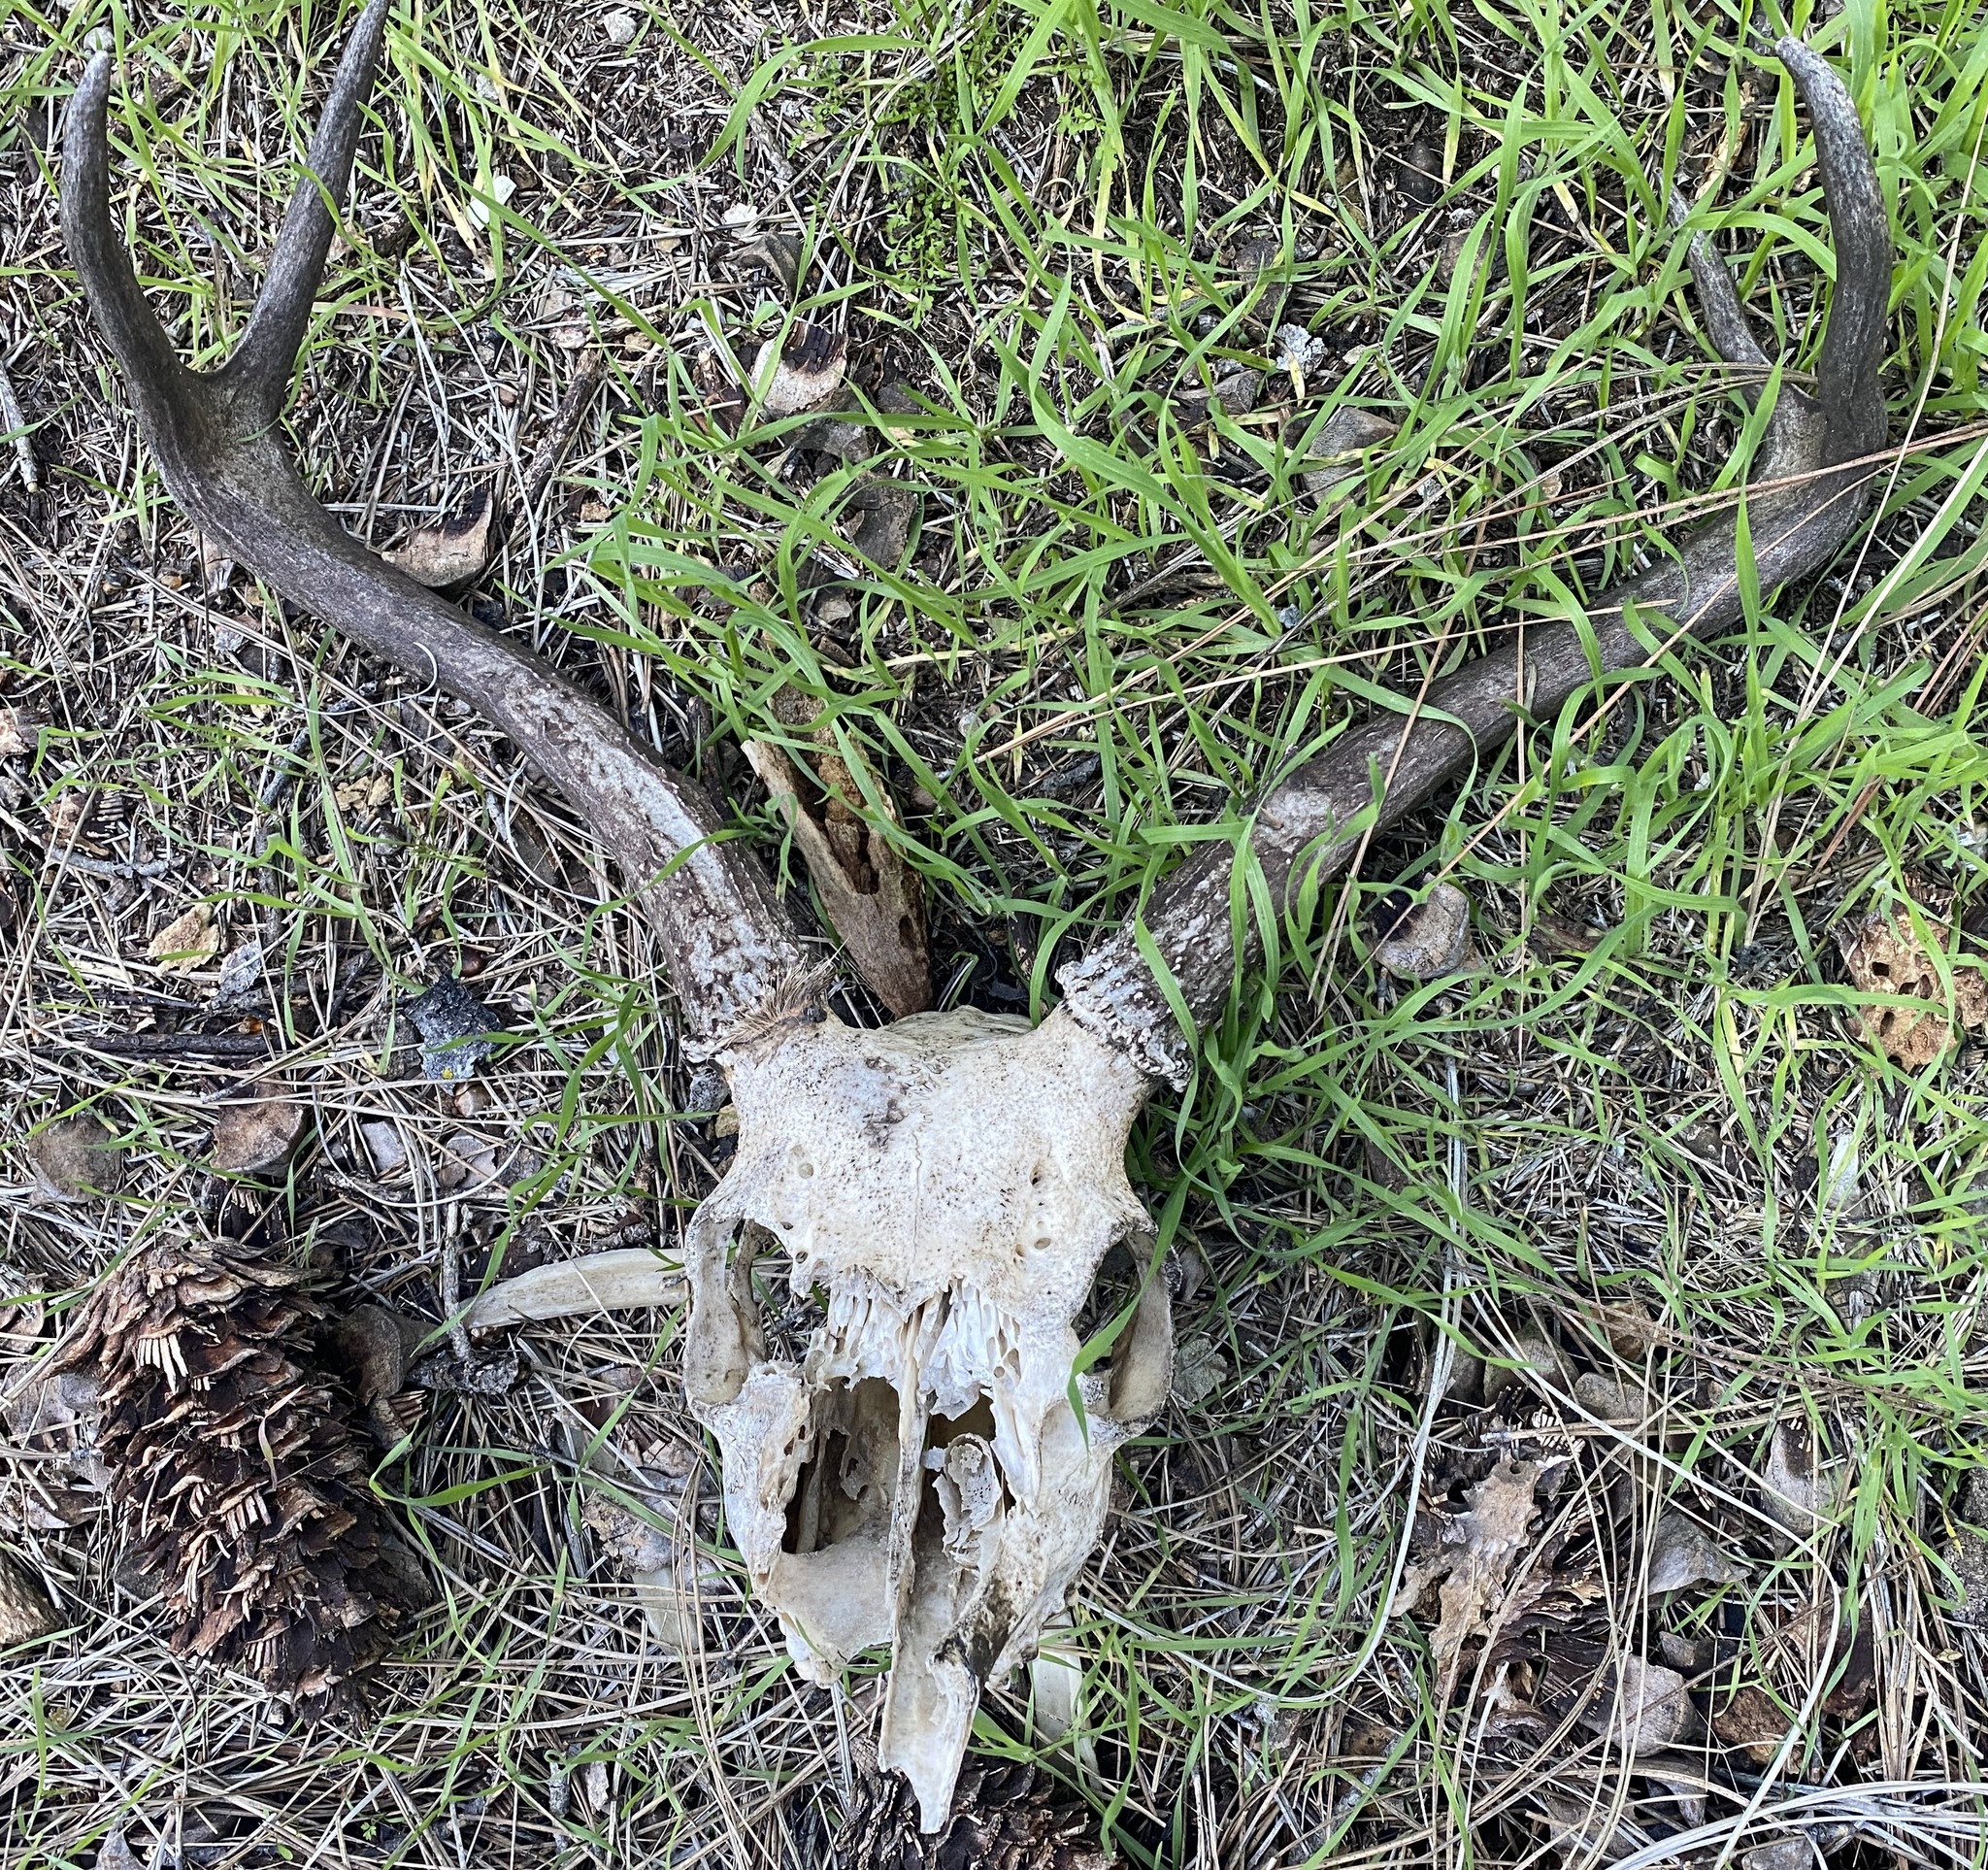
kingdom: Animalia
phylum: Chordata
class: Mammalia
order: Artiodactyla
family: Cervidae
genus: Odocoileus
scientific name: Odocoileus hemionus
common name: Mule deer
